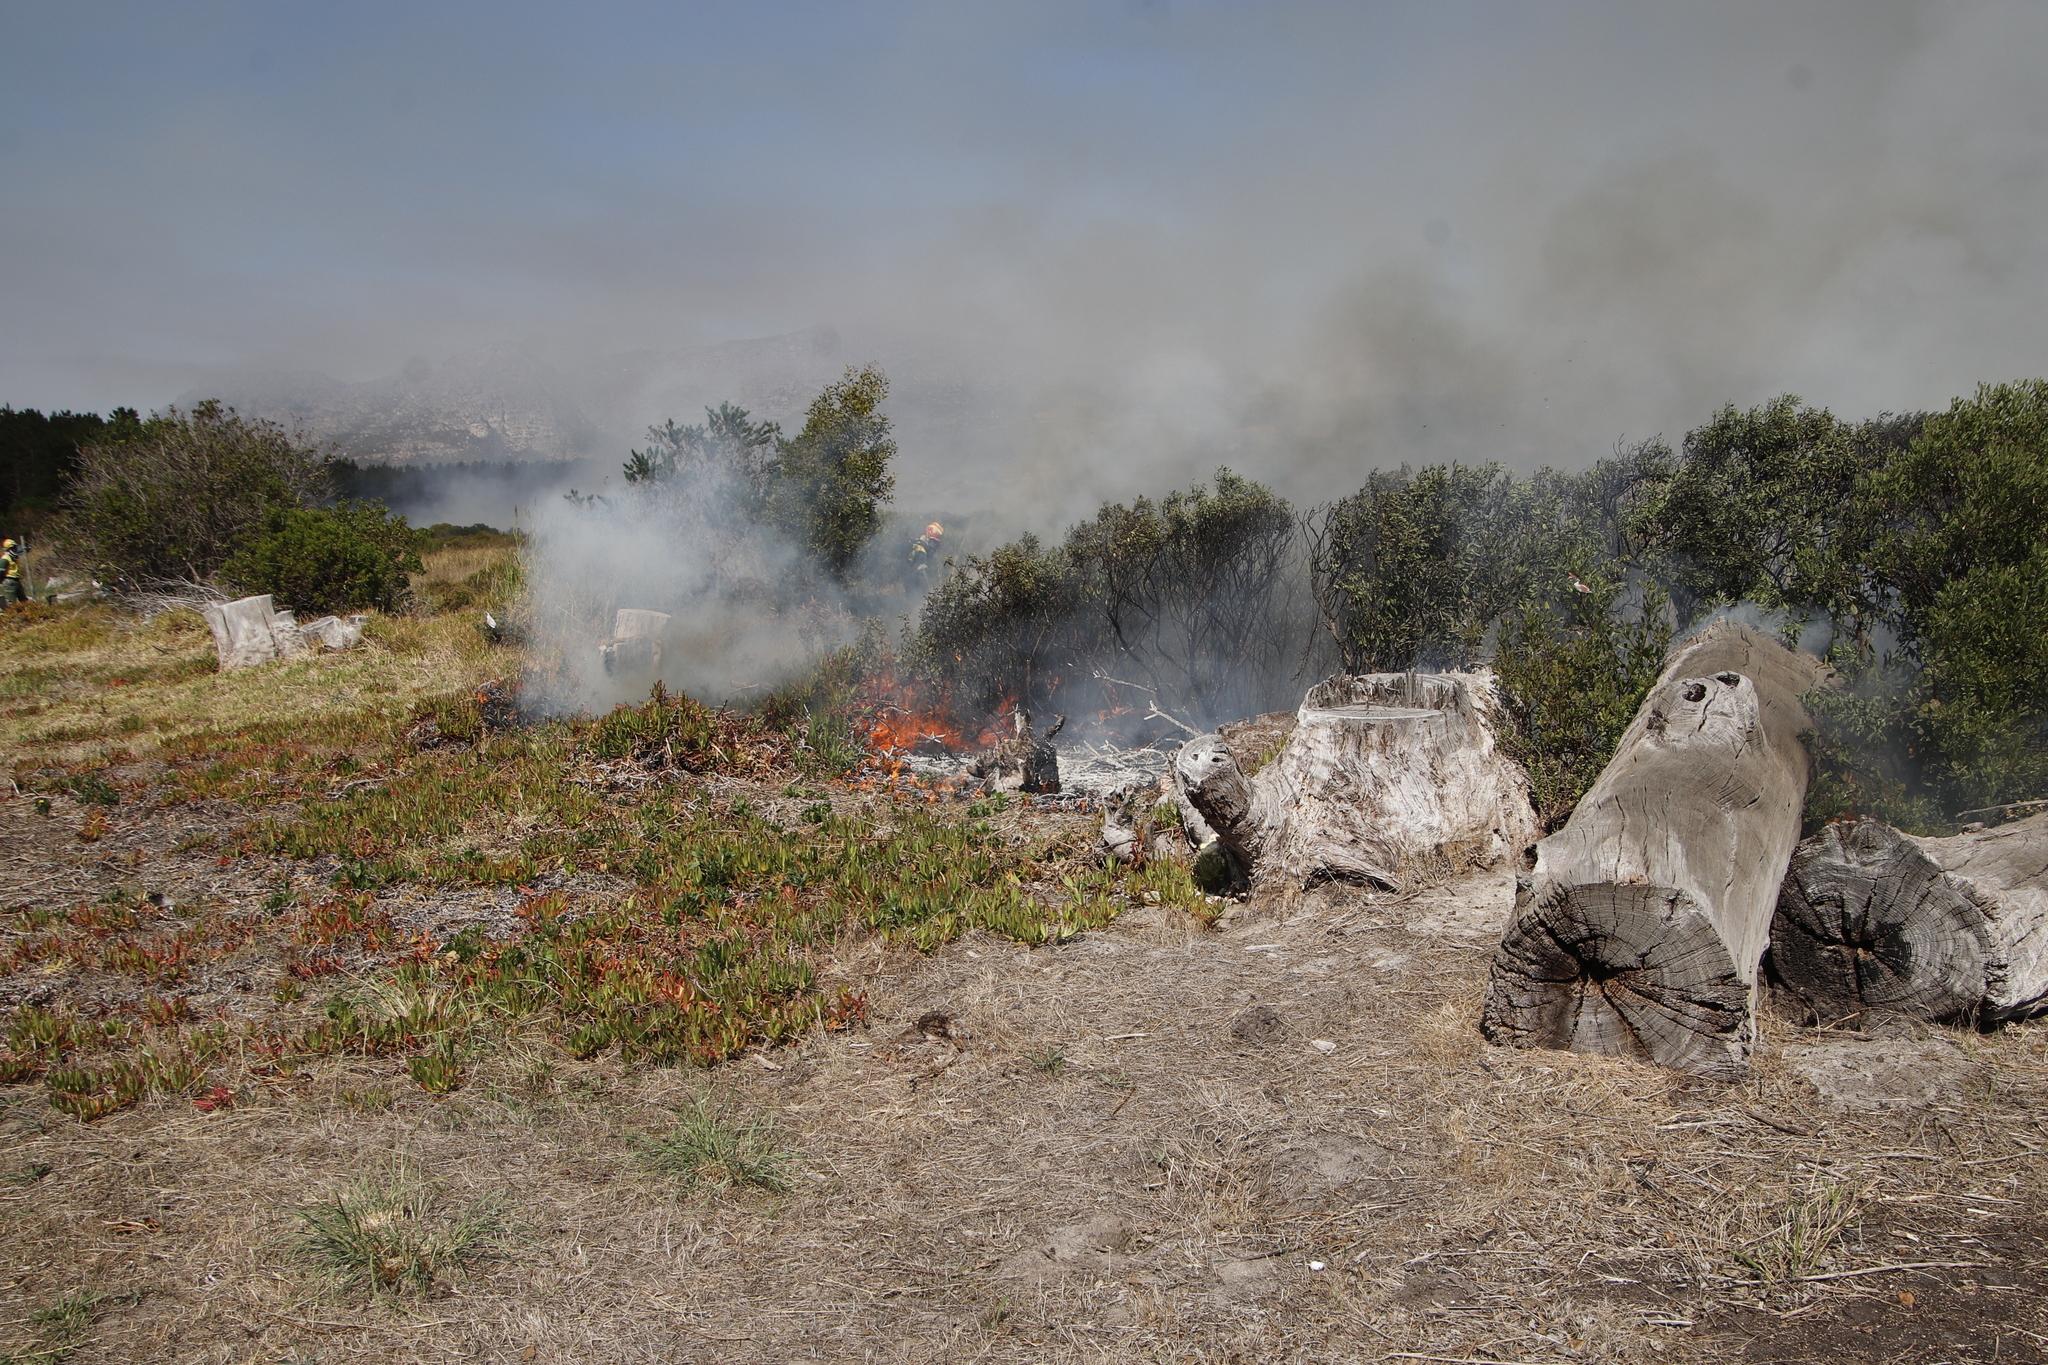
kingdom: Plantae
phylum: Tracheophyta
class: Magnoliopsida
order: Caryophyllales
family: Aizoaceae
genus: Carpobrotus
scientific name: Carpobrotus edulis
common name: Hottentot-fig
